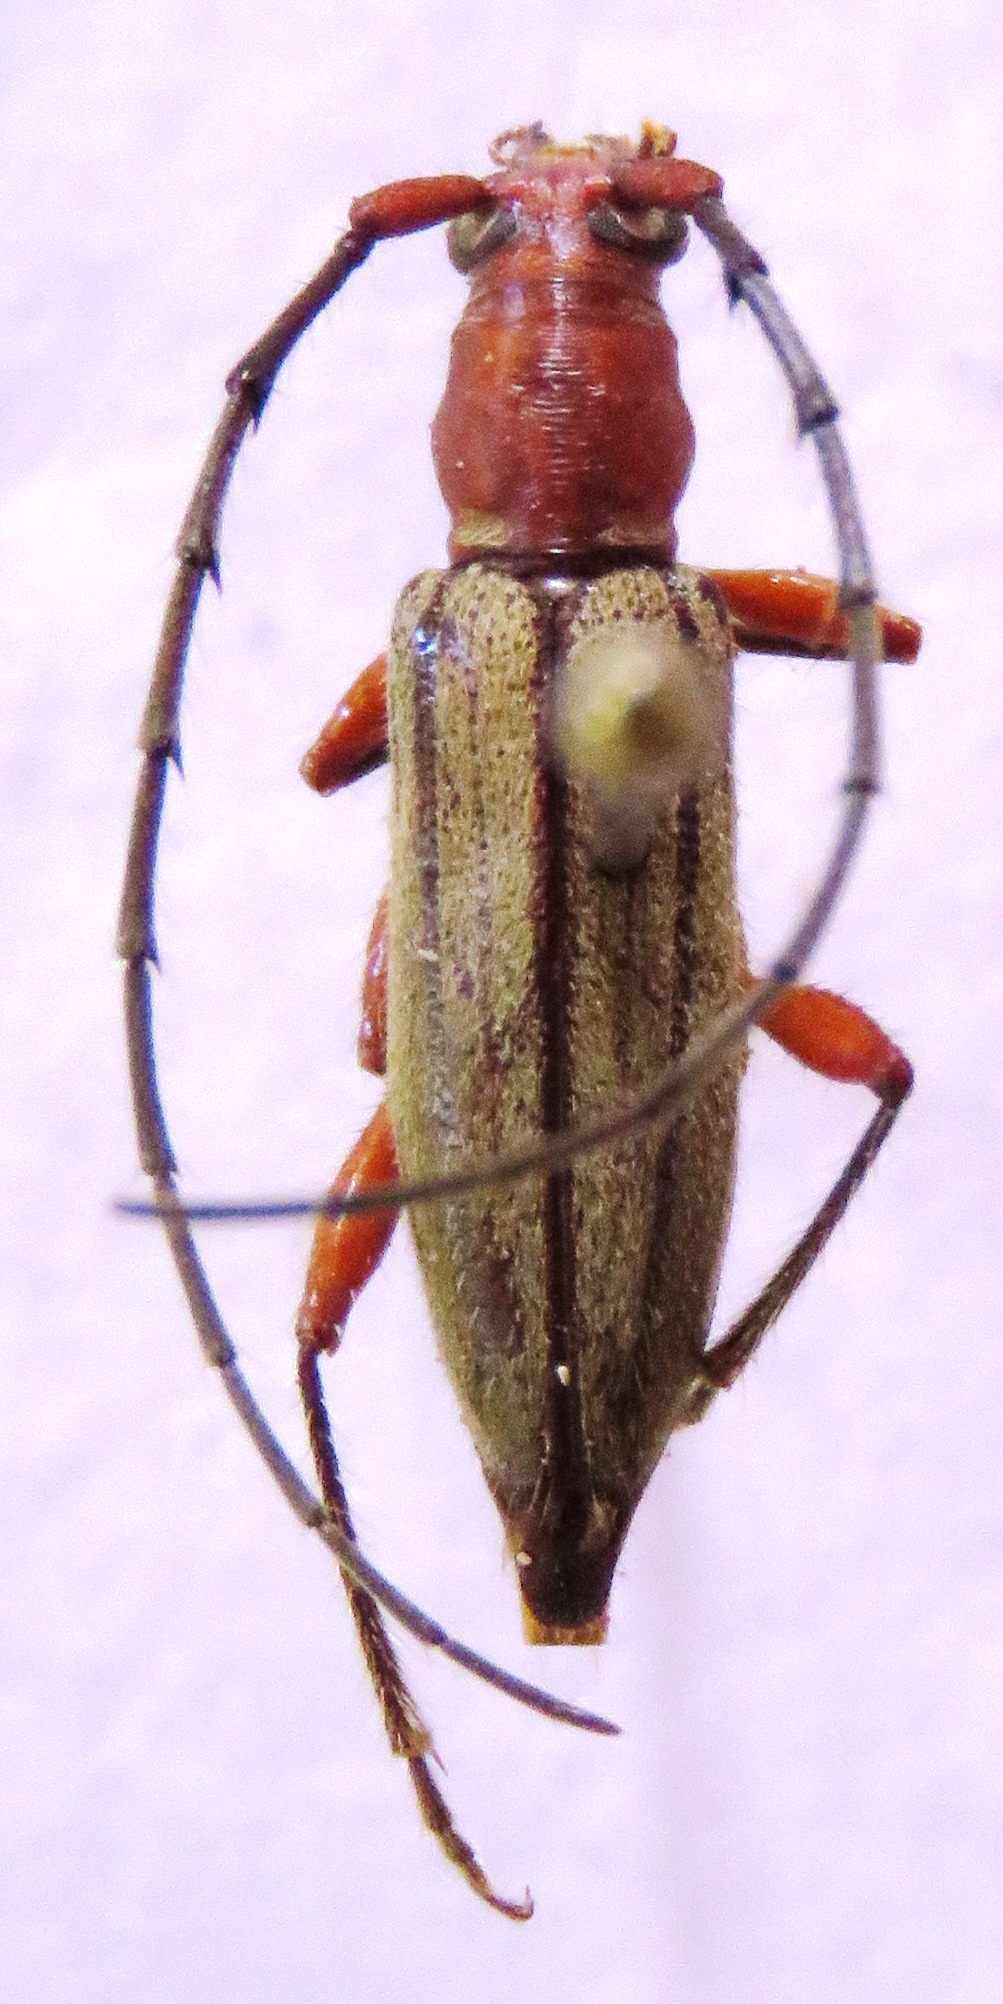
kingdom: Animalia
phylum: Arthropoda
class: Insecta
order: Coleoptera
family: Cerambycidae
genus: Ironeus
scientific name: Ironeus pulcher
